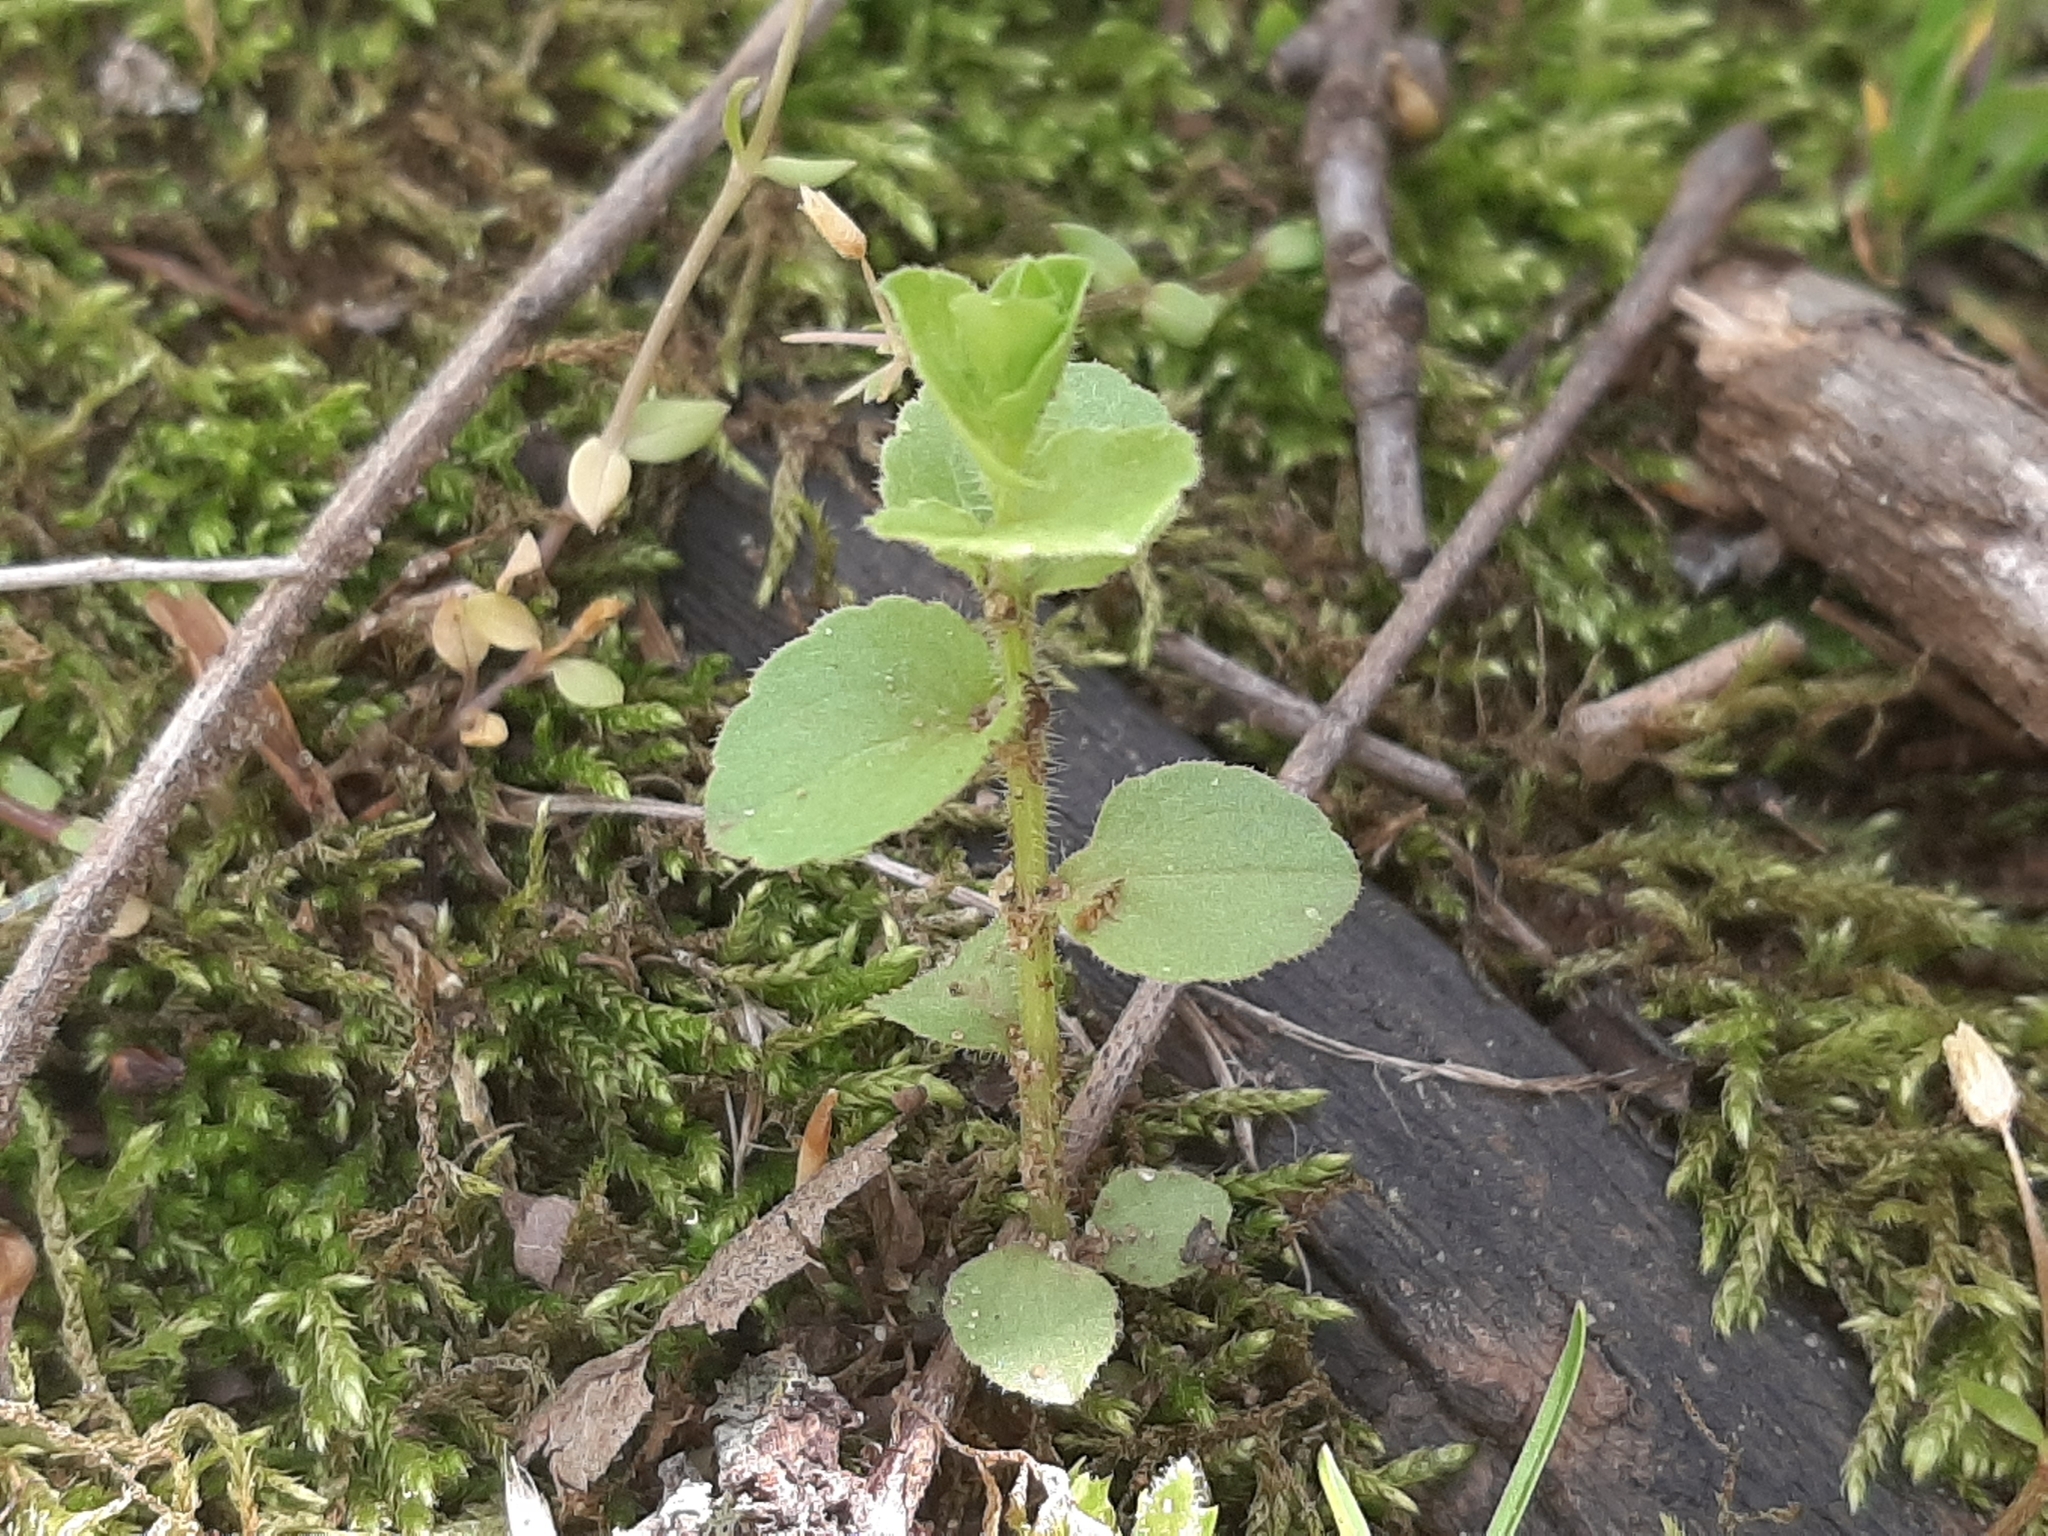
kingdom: Plantae
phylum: Tracheophyta
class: Magnoliopsida
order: Asterales
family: Campanulaceae
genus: Triodanis
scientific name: Triodanis perfoliata
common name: Clasping venus' looking-glass
